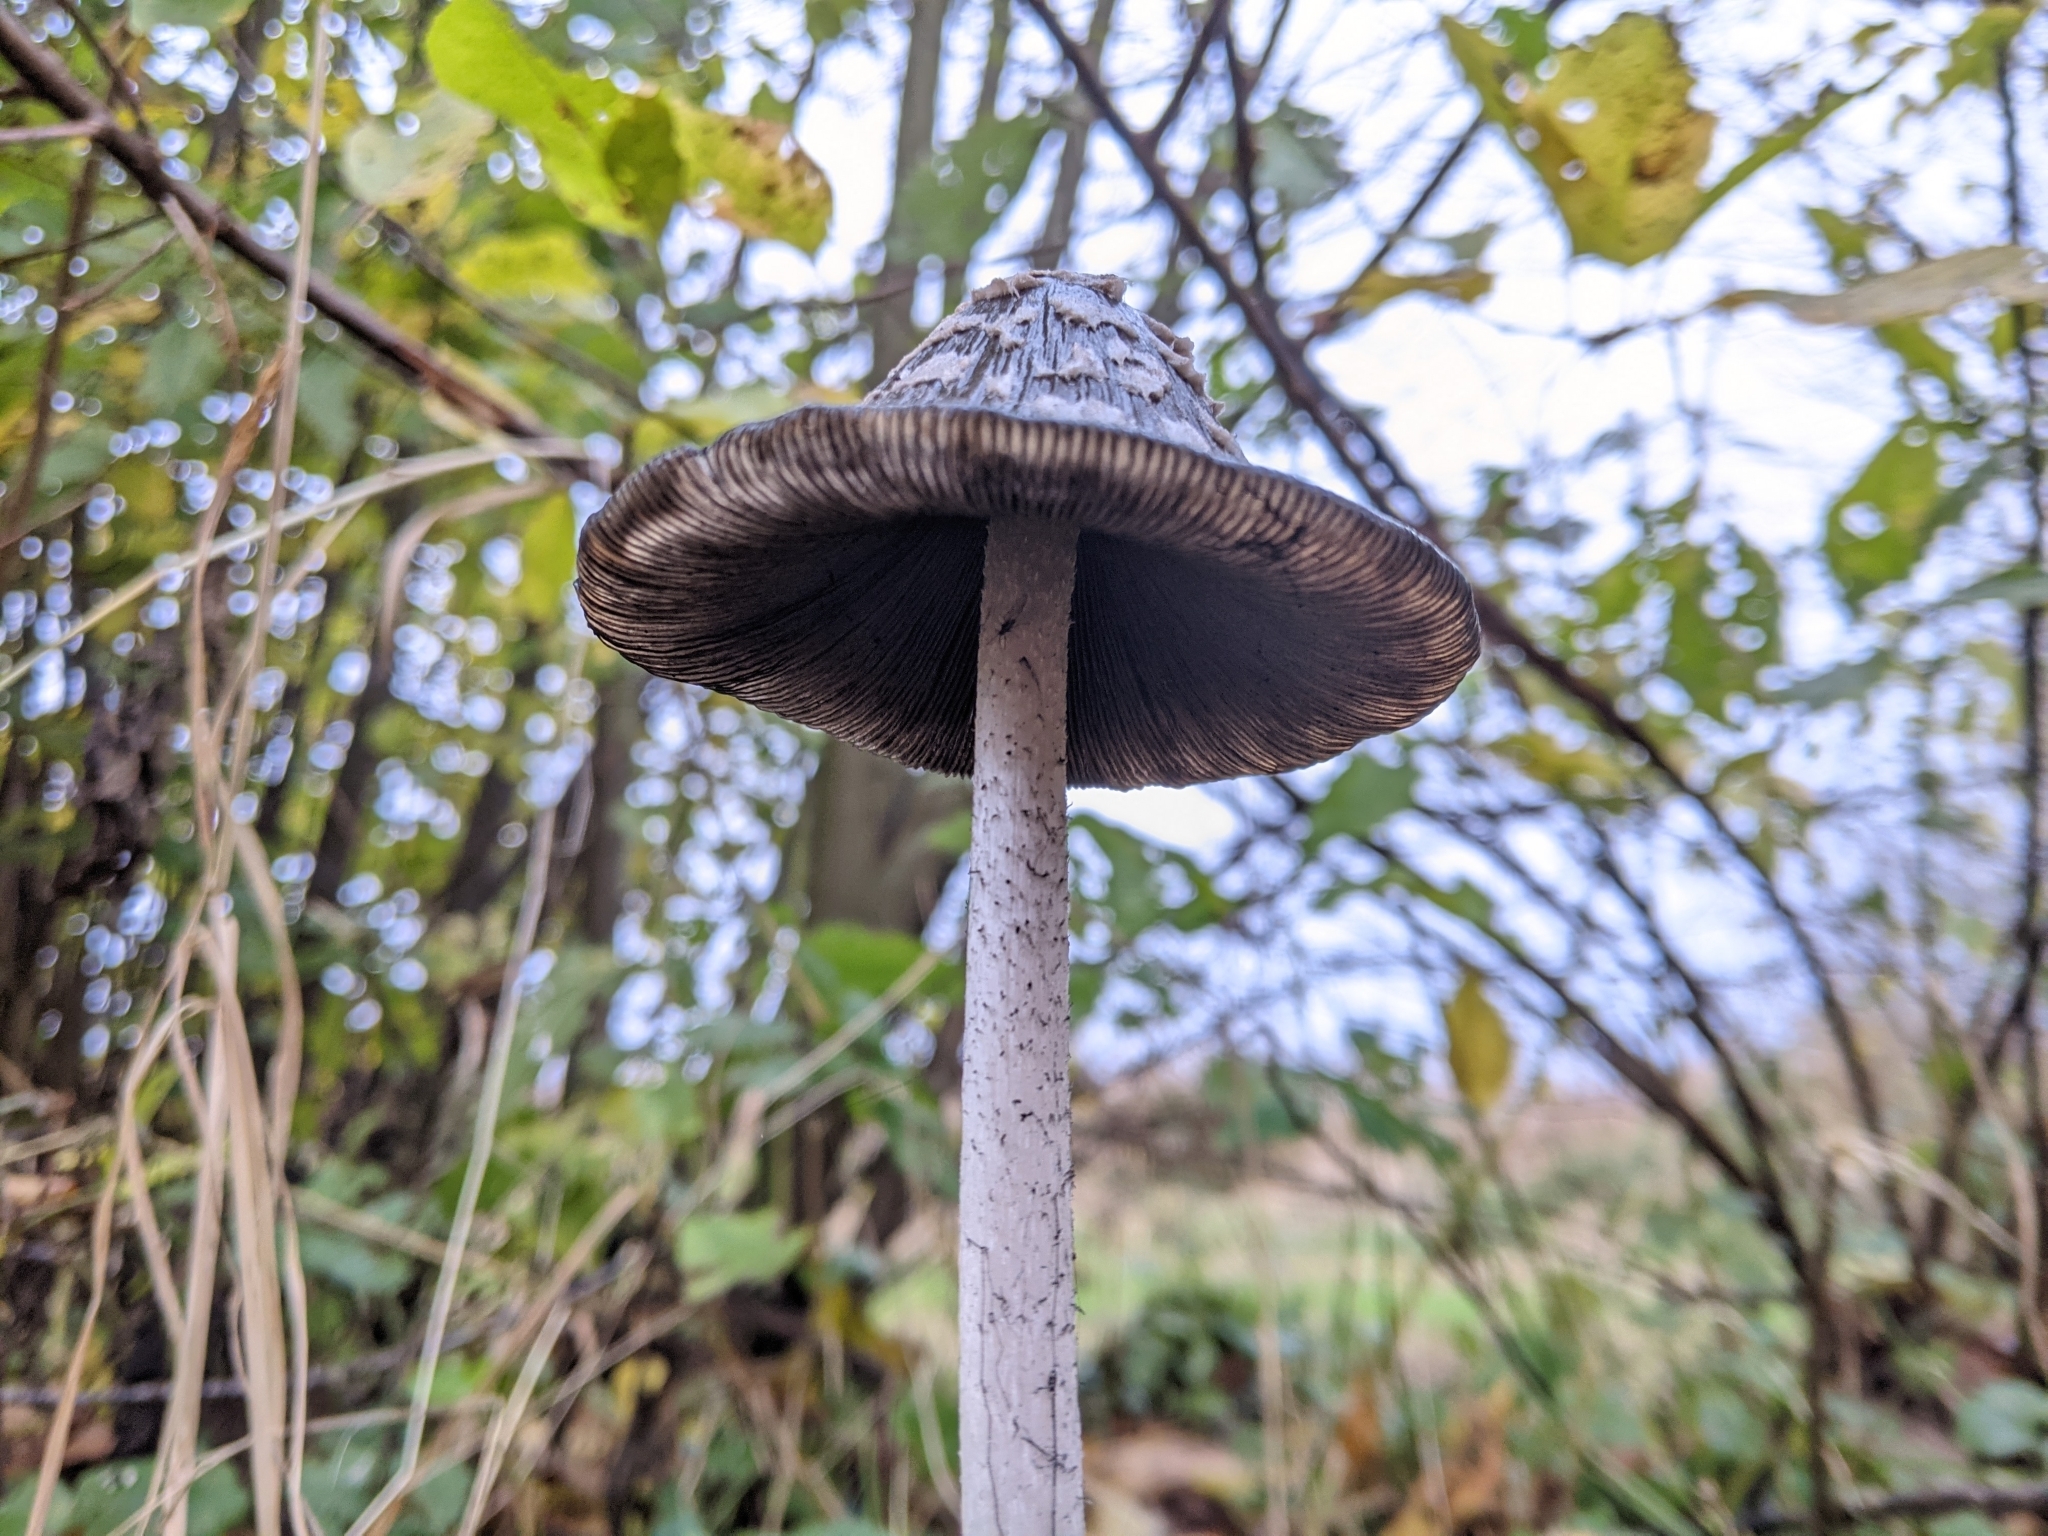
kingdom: Fungi
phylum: Basidiomycota
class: Agaricomycetes
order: Agaricales
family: Psathyrellaceae
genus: Coprinopsis
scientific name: Coprinopsis picacea
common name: Magpie inkcap
